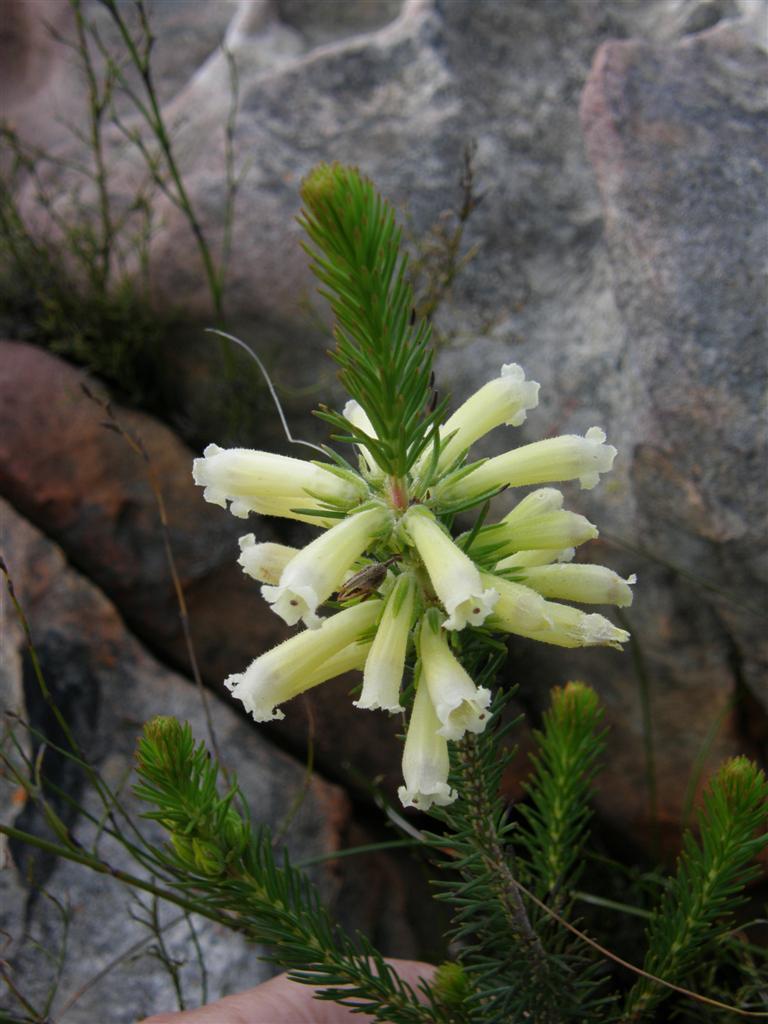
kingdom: Plantae
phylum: Tracheophyta
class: Magnoliopsida
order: Ericales
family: Ericaceae
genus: Erica
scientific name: Erica viscaria
